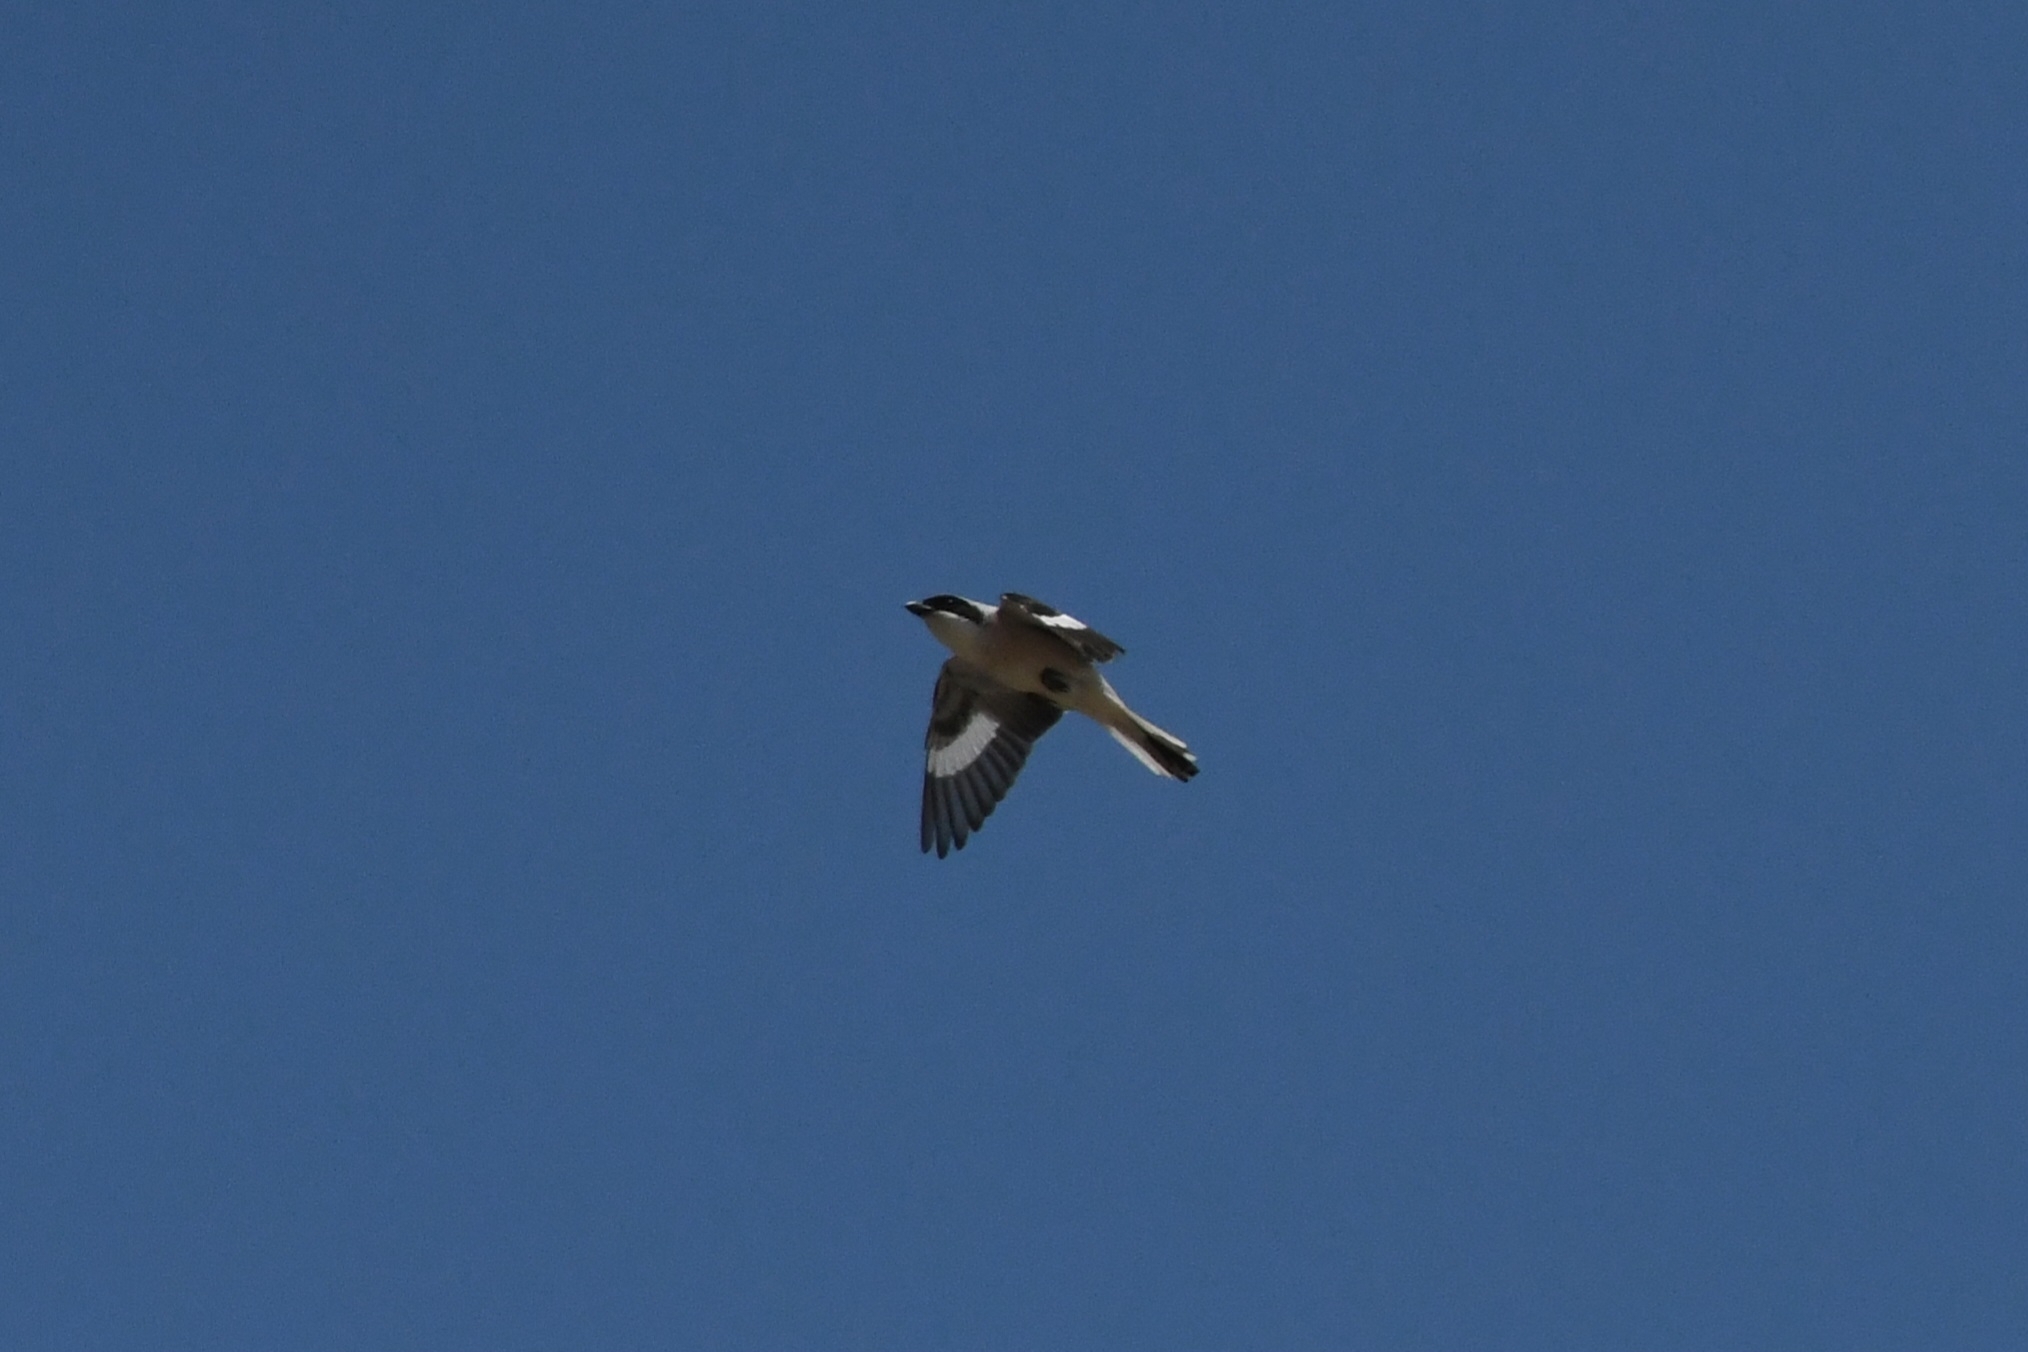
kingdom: Animalia
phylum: Chordata
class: Aves
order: Passeriformes
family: Laniidae
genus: Lanius
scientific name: Lanius minor
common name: Lesser grey shrike
